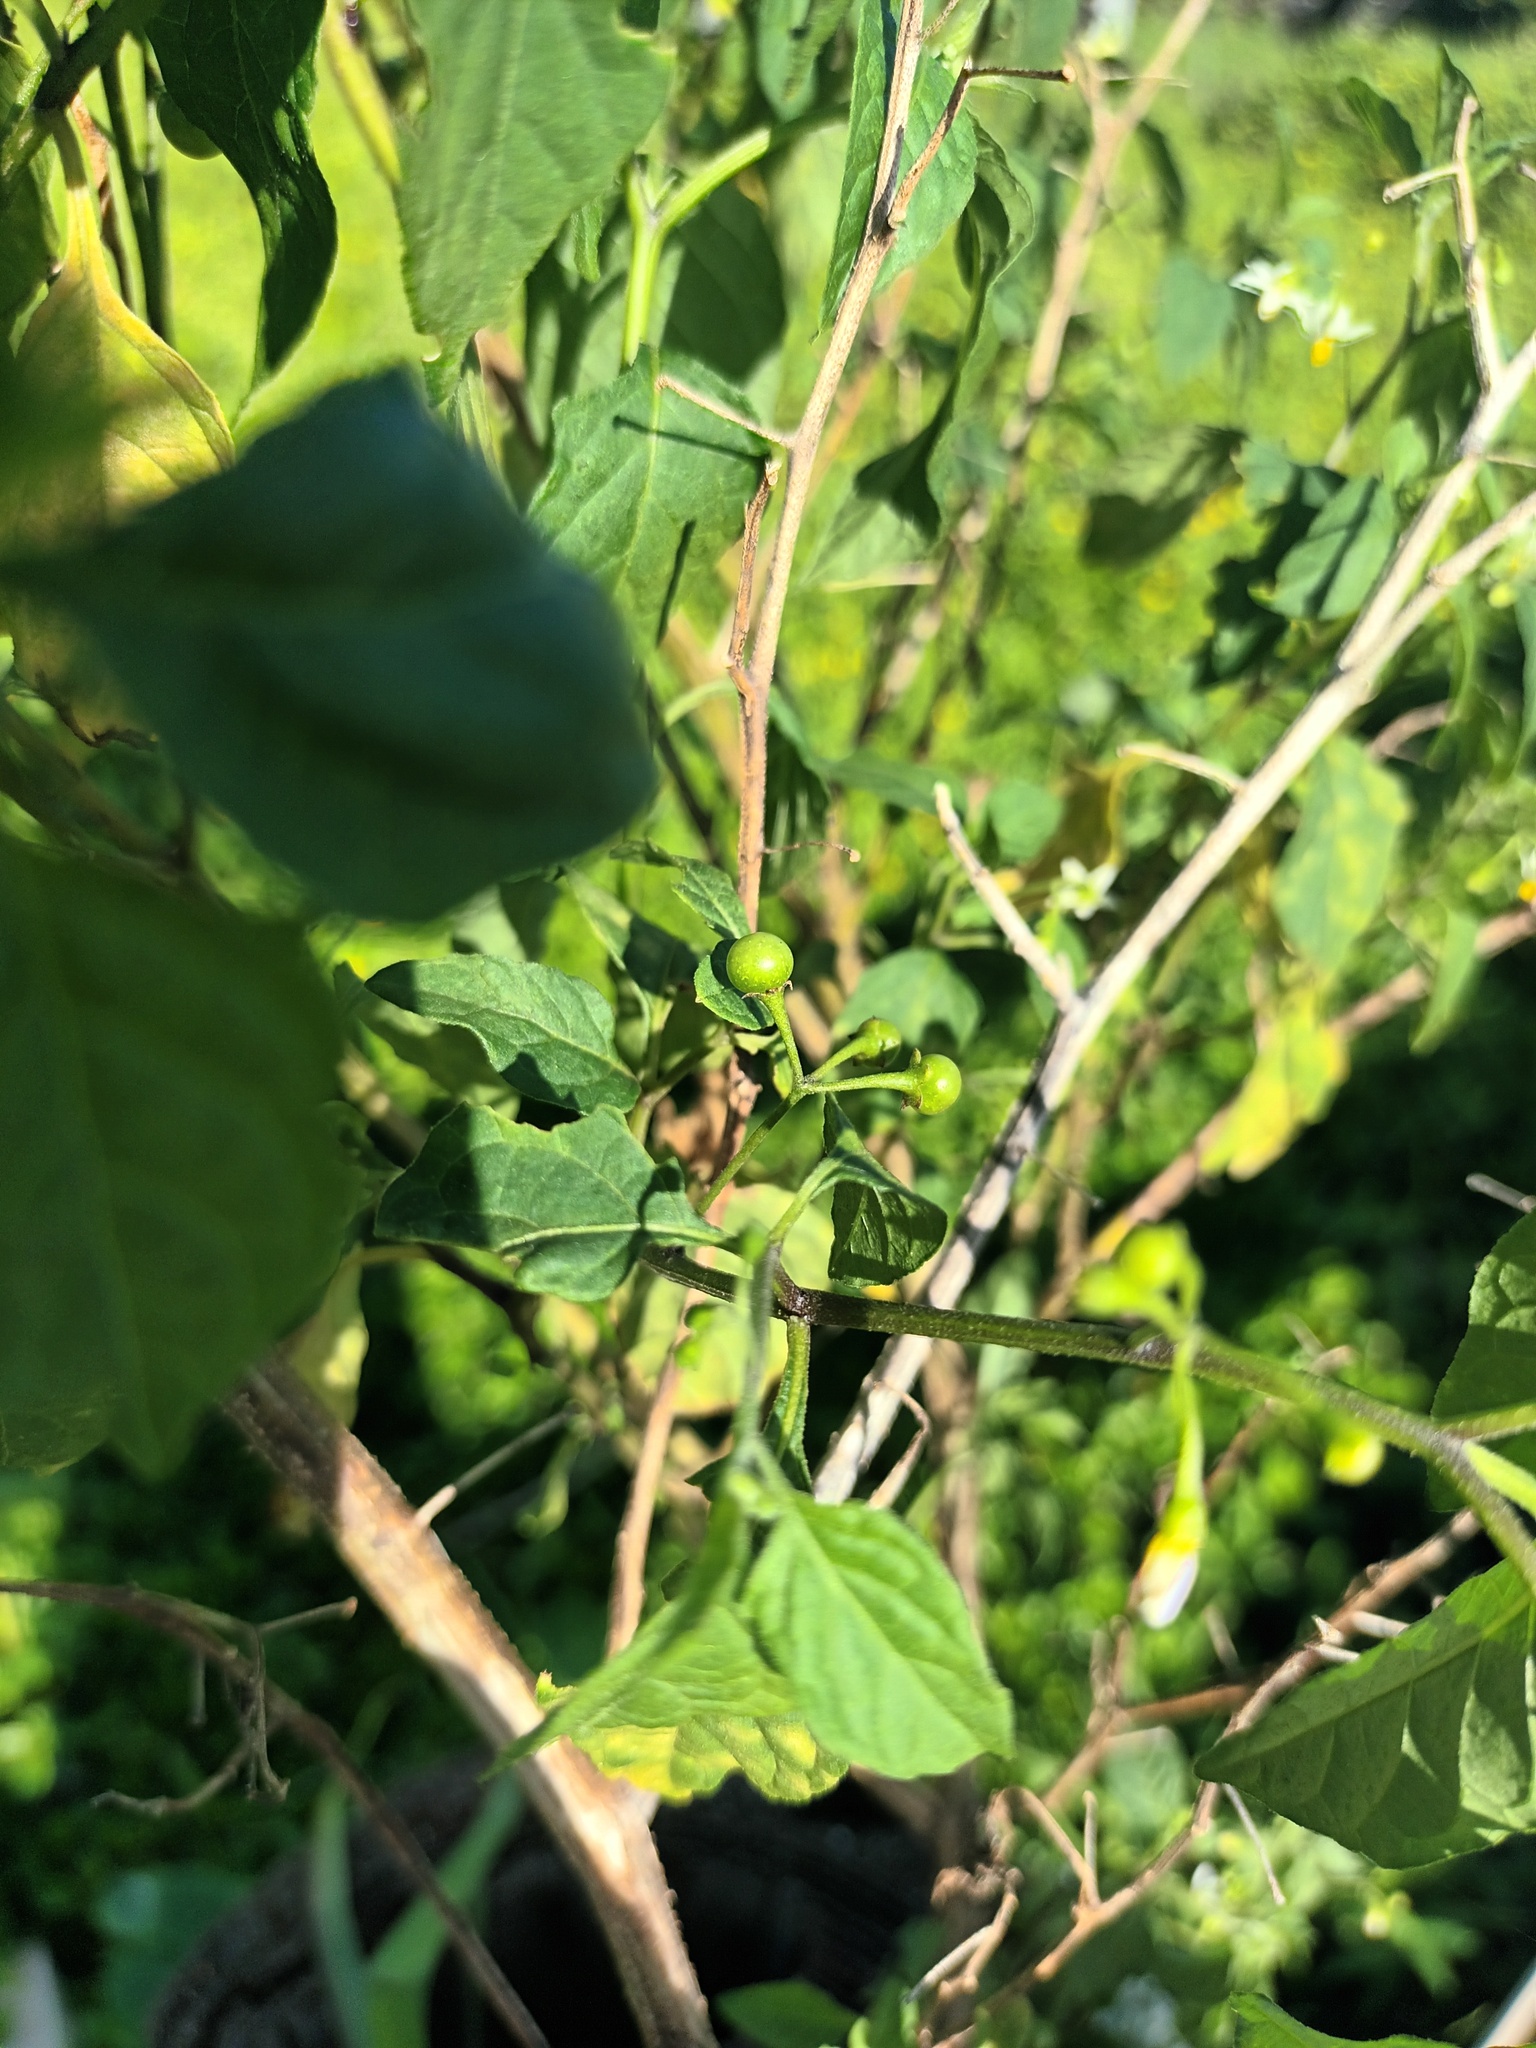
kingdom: Plantae
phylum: Tracheophyta
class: Magnoliopsida
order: Solanales
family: Solanaceae
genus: Solanum
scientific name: Solanum americanum
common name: American black nightshade
